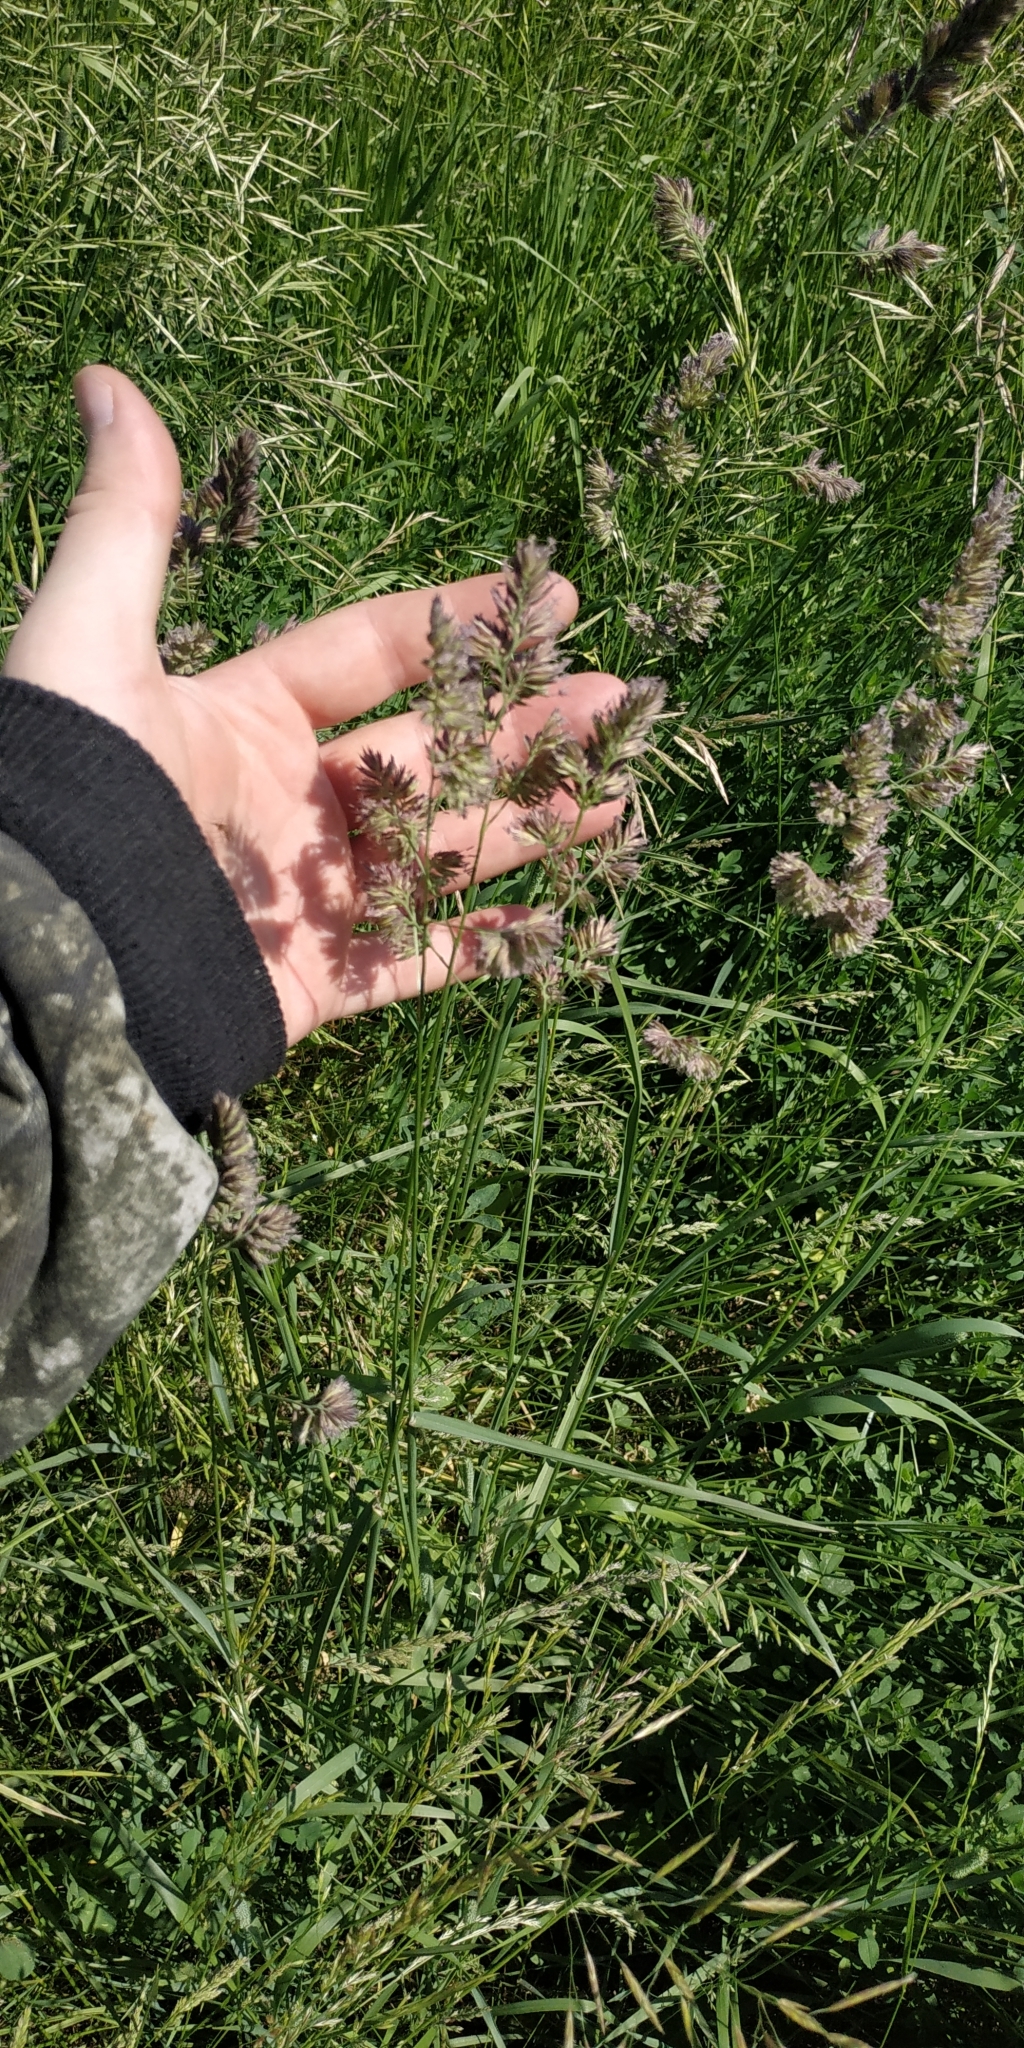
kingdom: Plantae
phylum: Tracheophyta
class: Liliopsida
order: Poales
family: Poaceae
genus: Dactylis
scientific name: Dactylis glomerata
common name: Orchardgrass
